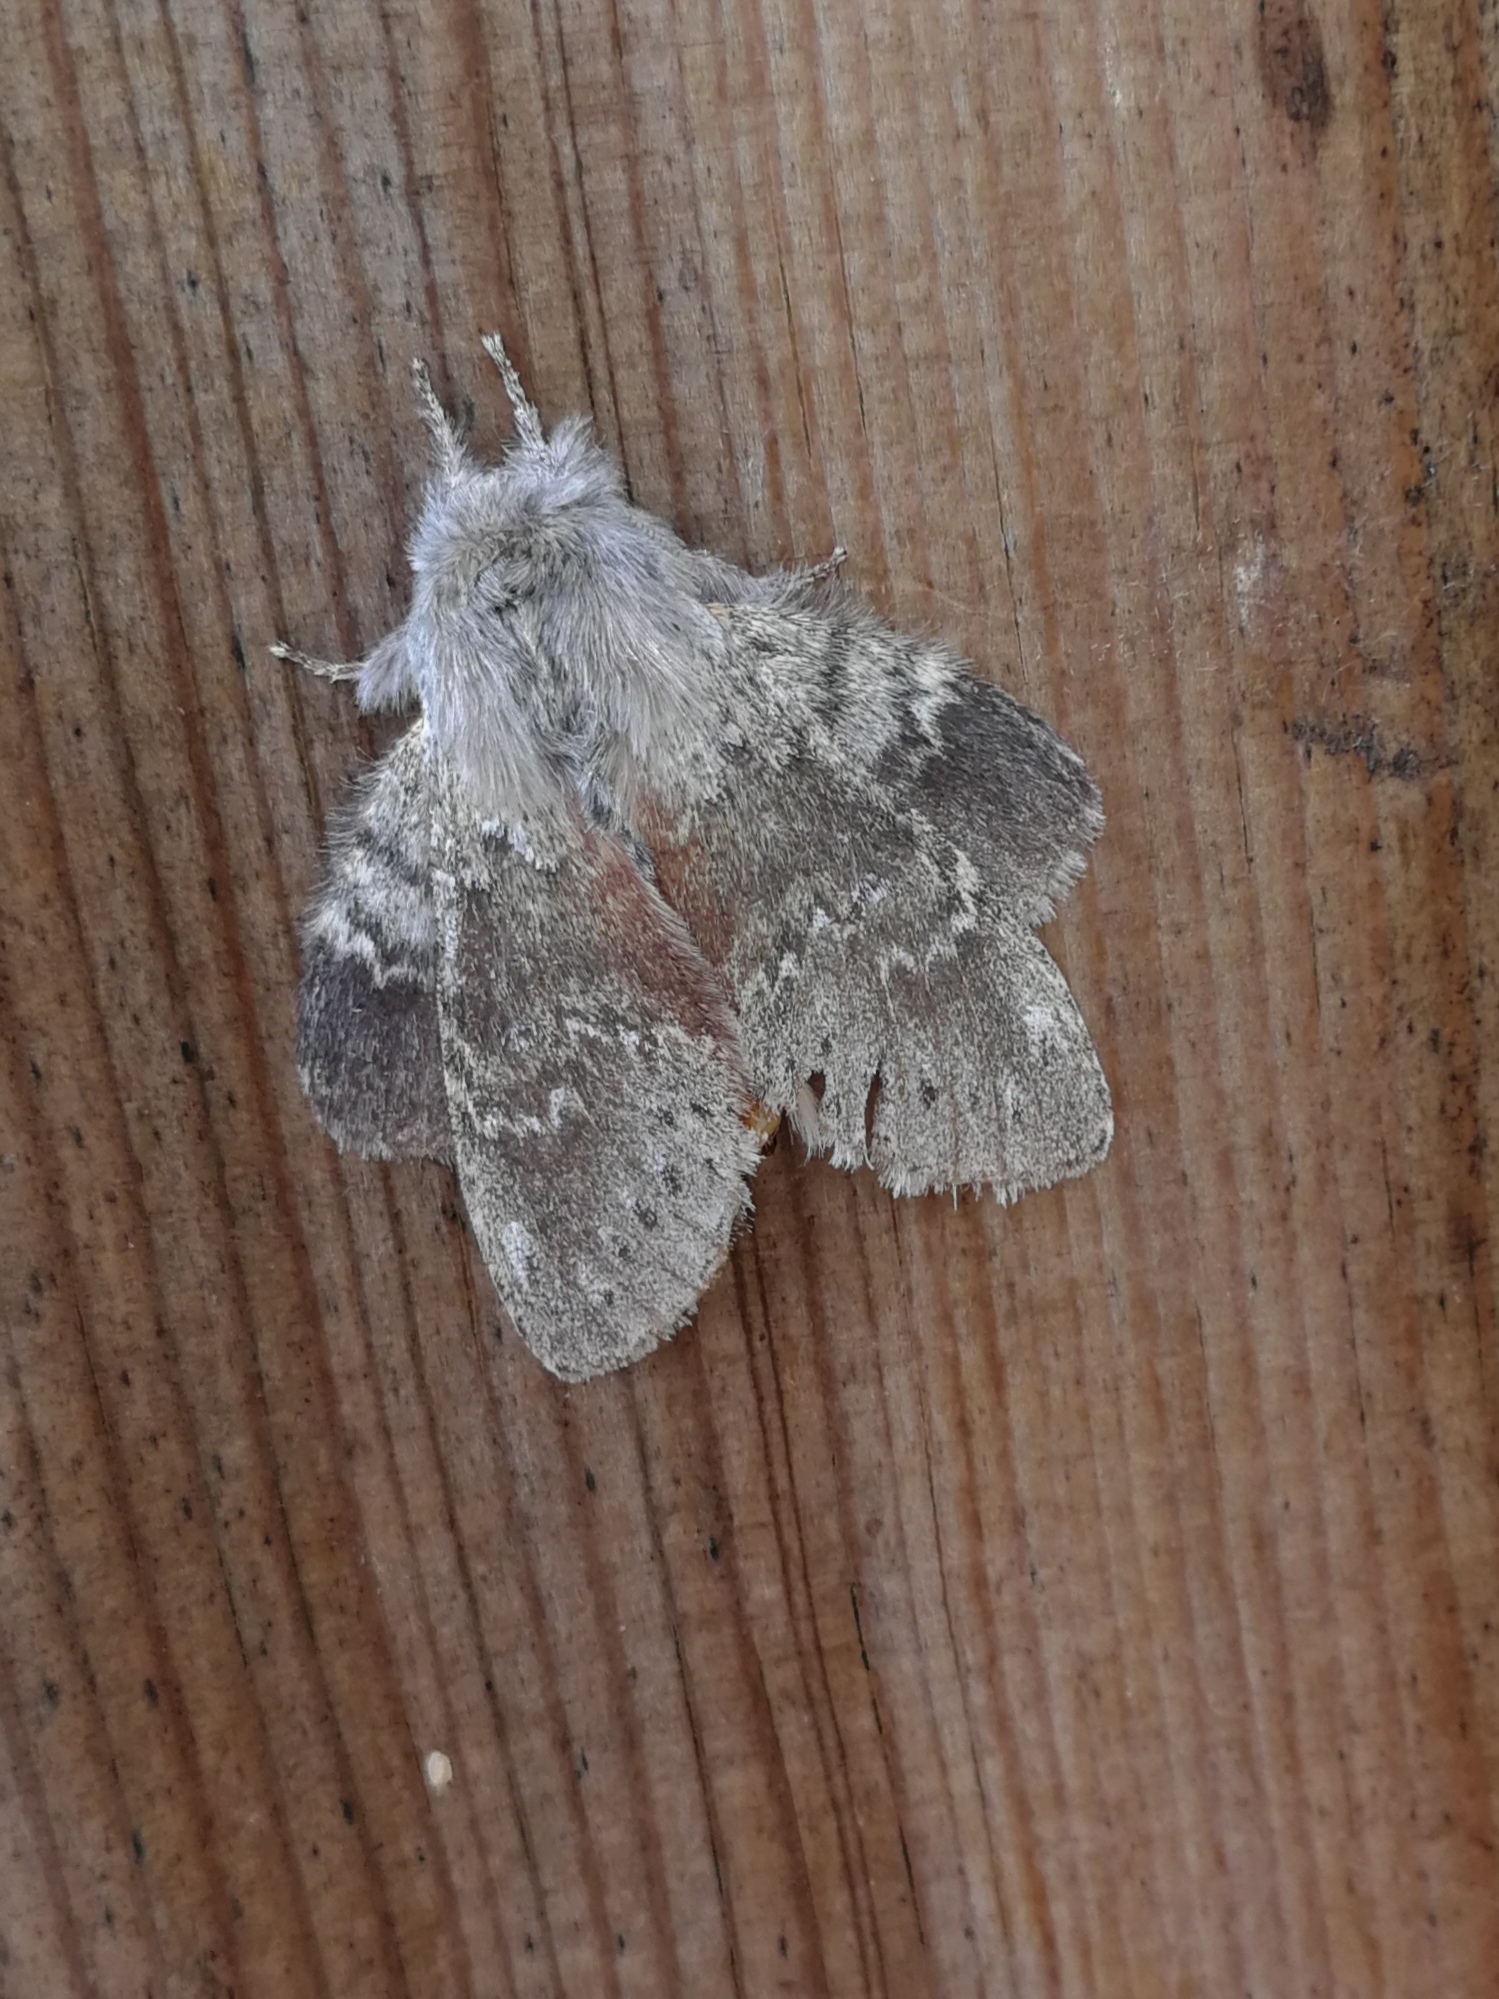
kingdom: Animalia
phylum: Arthropoda
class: Insecta
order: Lepidoptera
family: Notodontidae
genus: Stauropus
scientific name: Stauropus fagi
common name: Lobster moth
